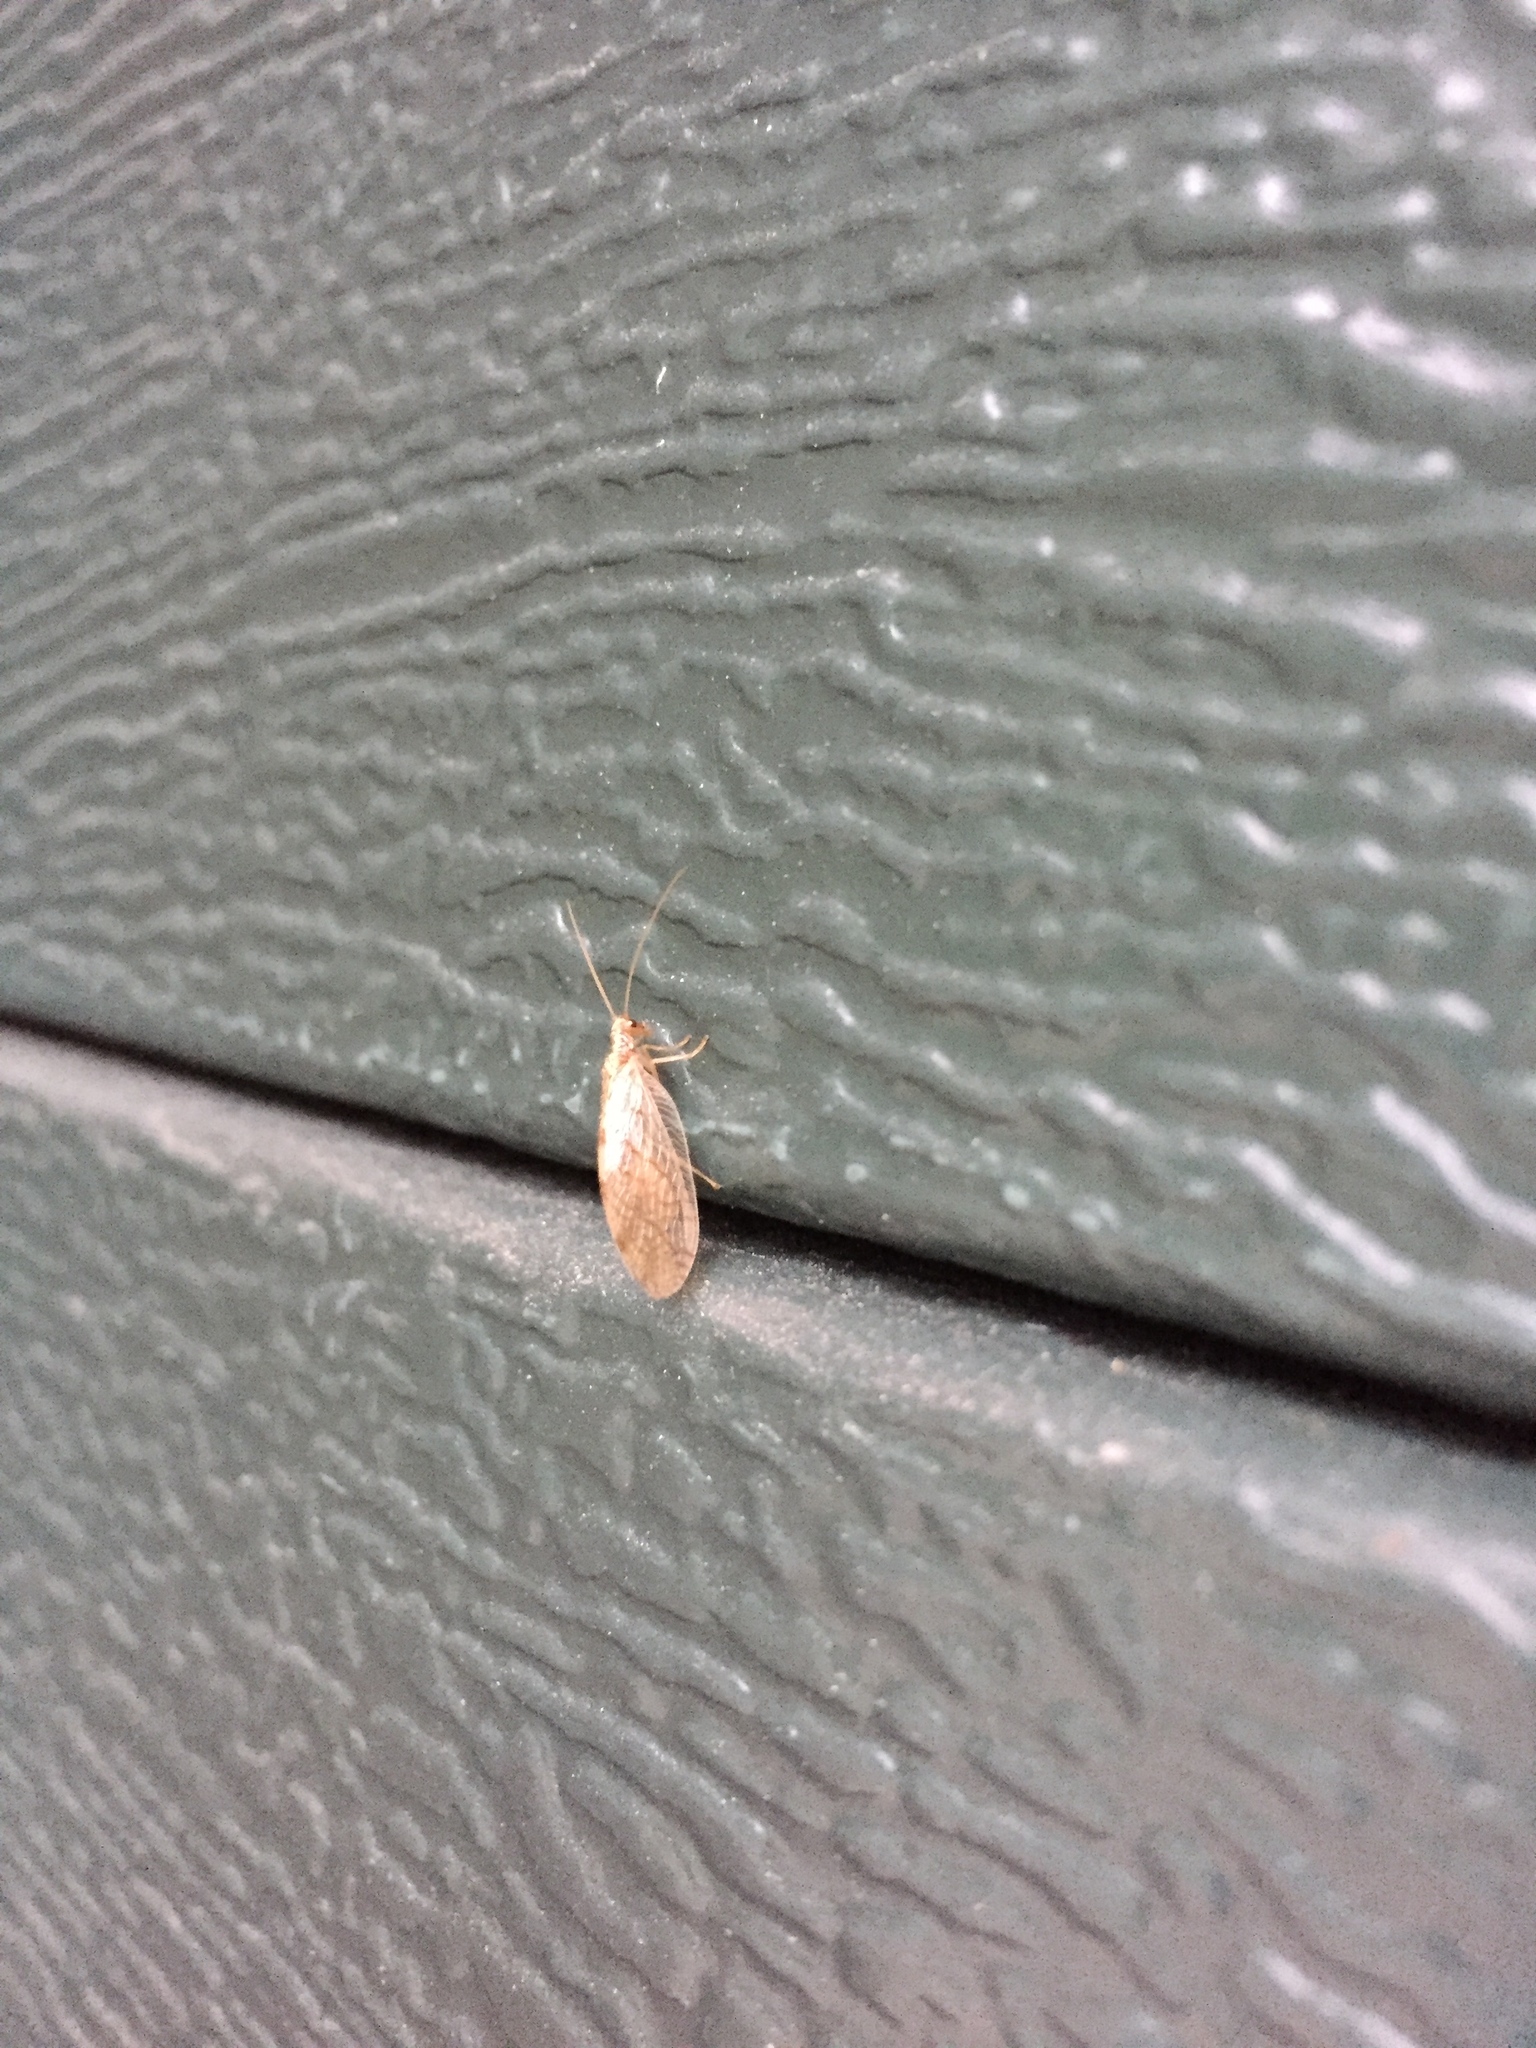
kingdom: Animalia
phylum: Arthropoda
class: Insecta
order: Neuroptera
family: Hemerobiidae
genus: Micromus
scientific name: Micromus borealis
